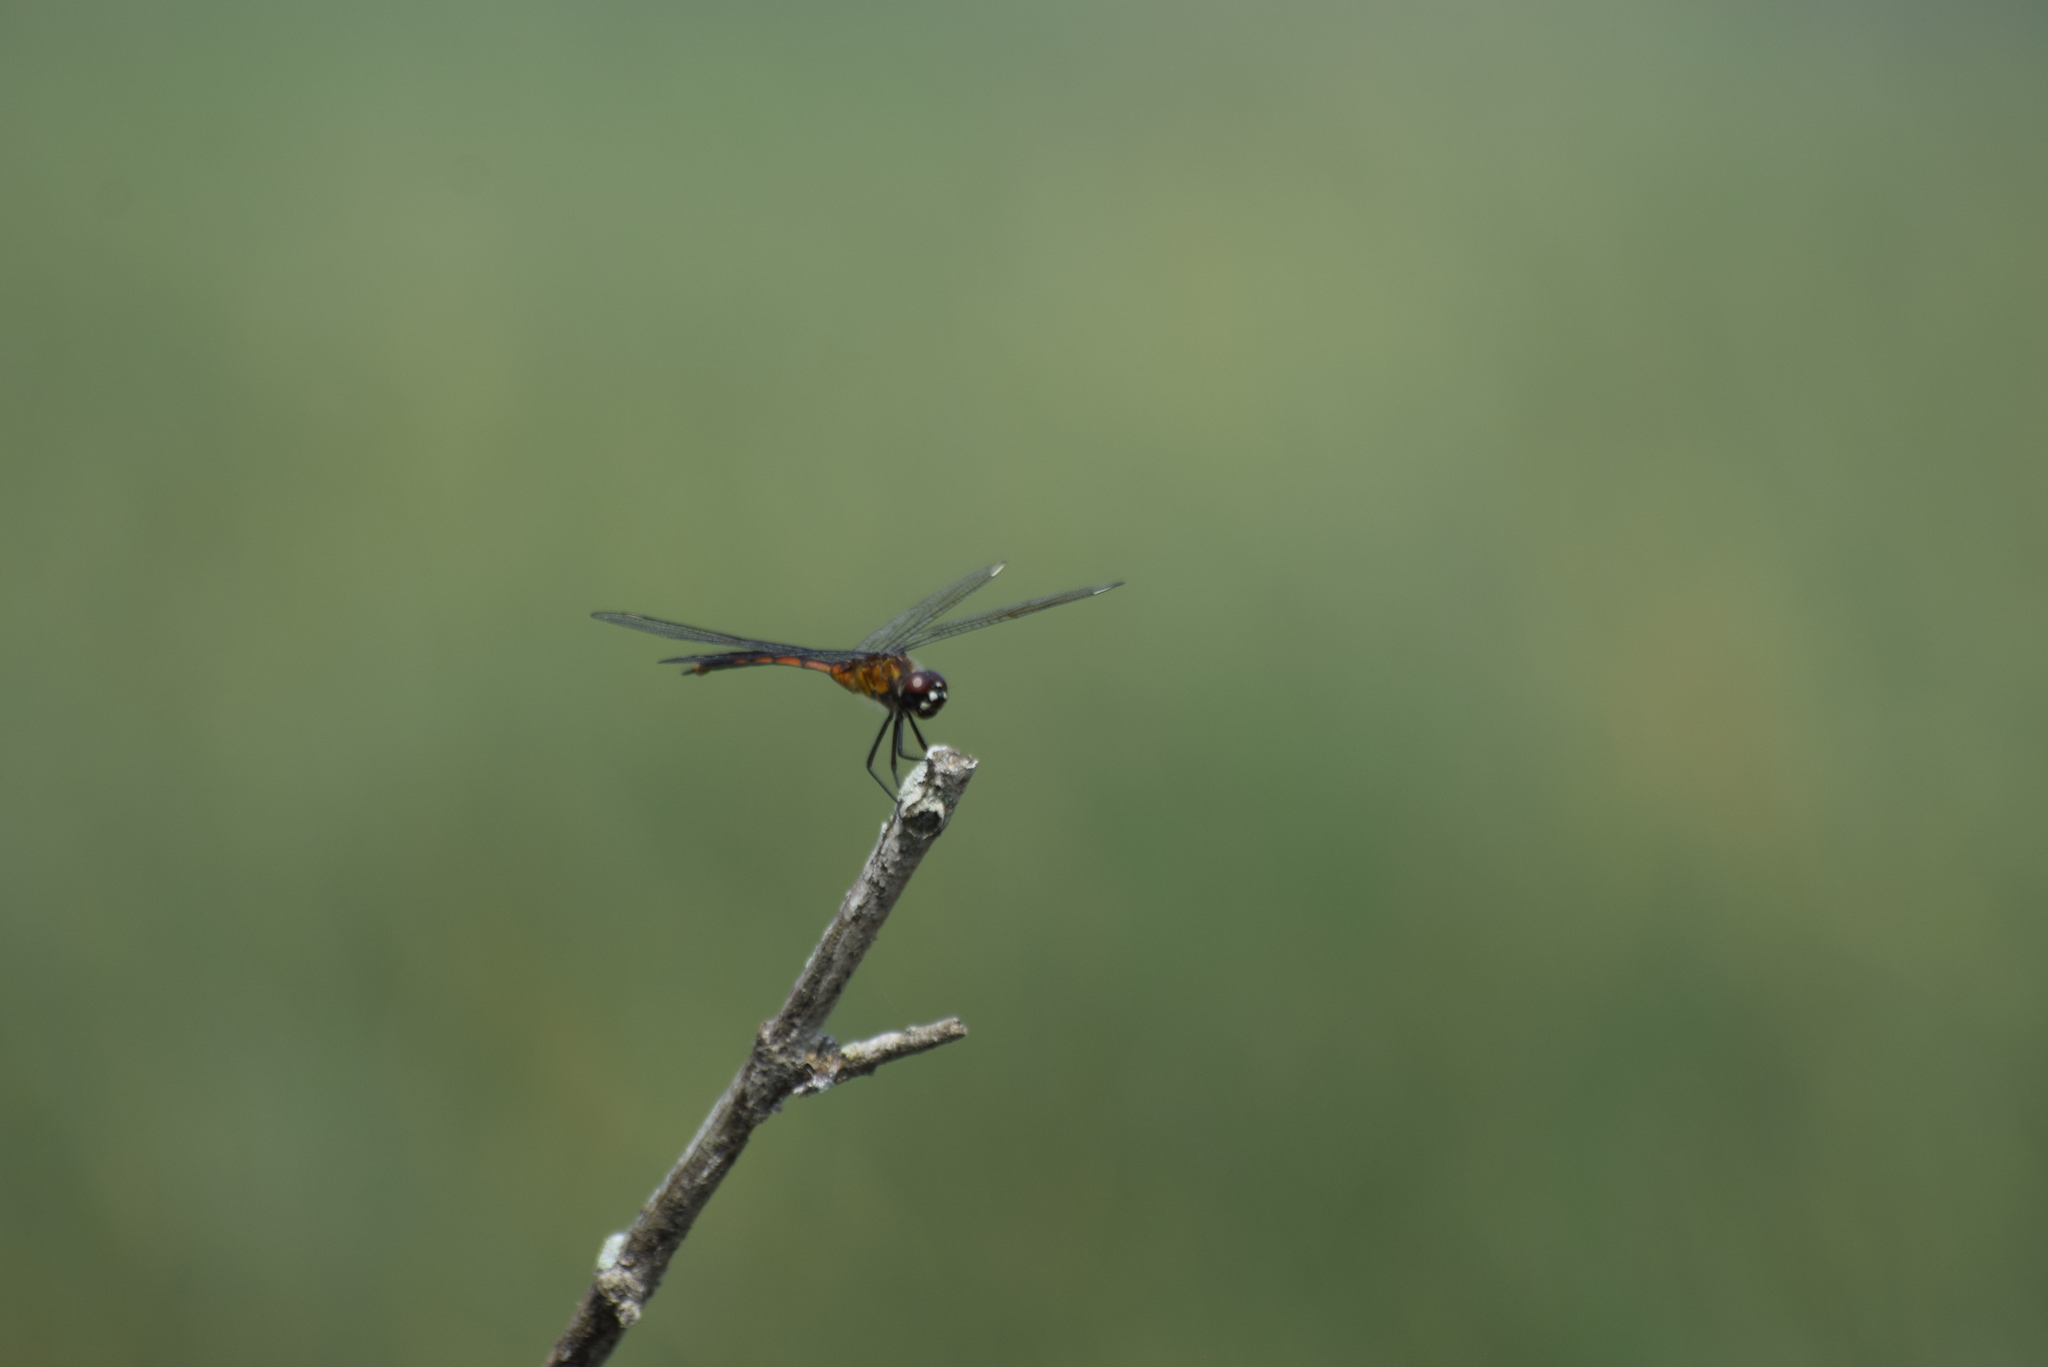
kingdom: Animalia
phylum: Arthropoda
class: Insecta
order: Odonata
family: Libellulidae
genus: Brachymesia
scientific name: Brachymesia gravida
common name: Four-spotted pennant
